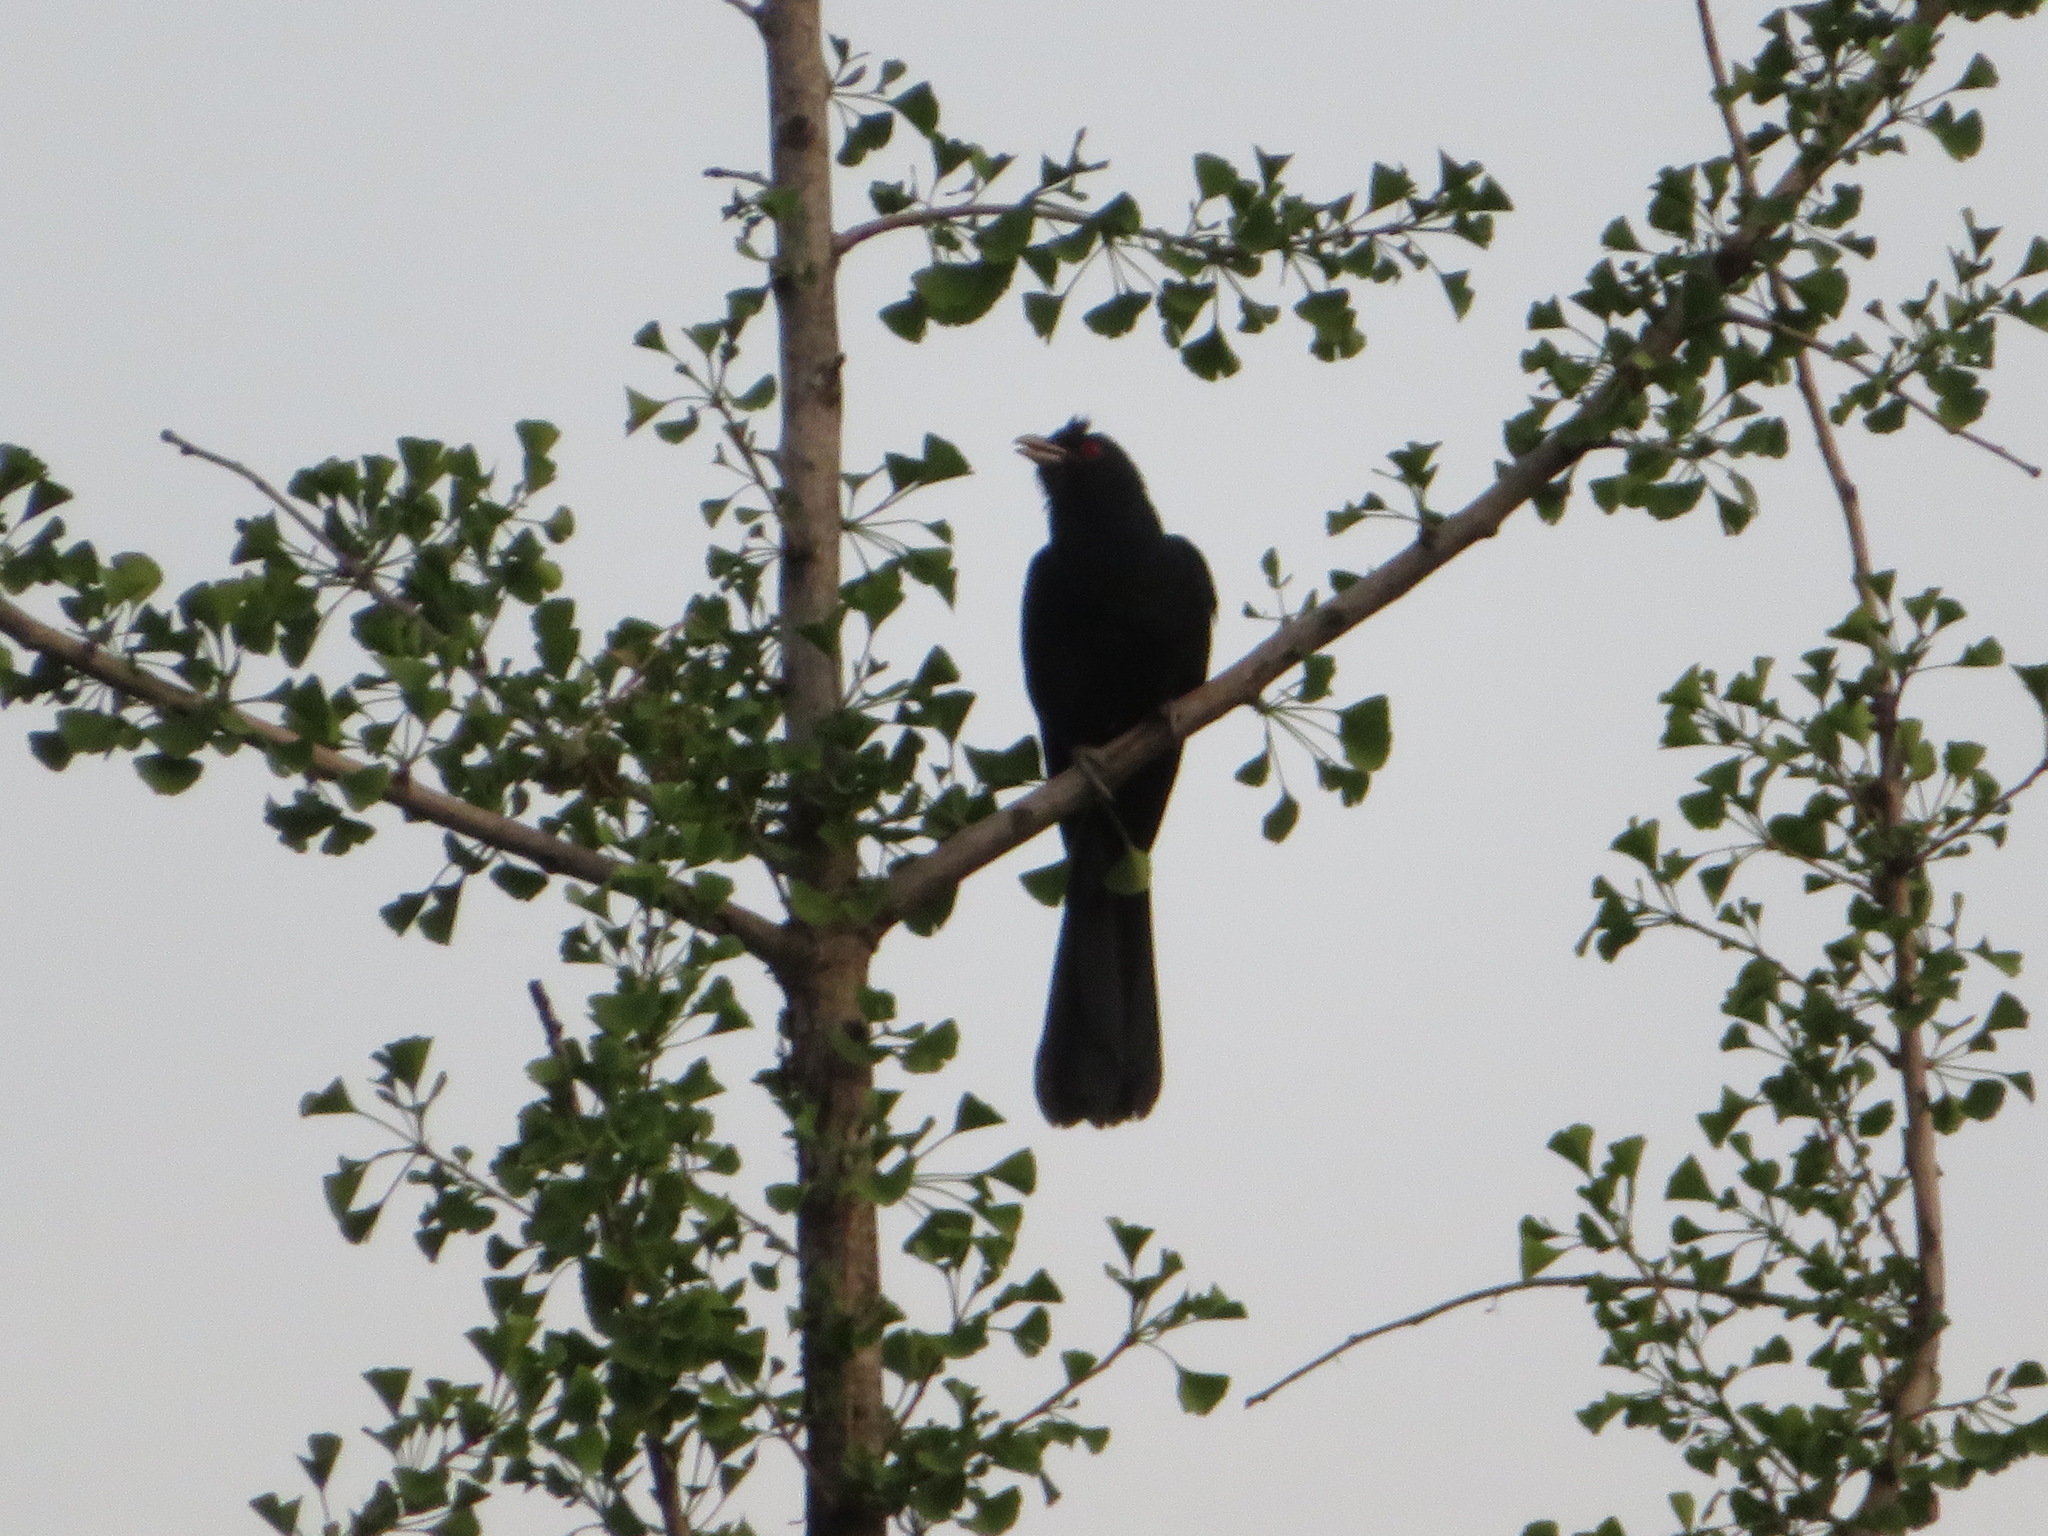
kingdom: Animalia
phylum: Chordata
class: Aves
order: Cuculiformes
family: Cuculidae
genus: Eudynamys
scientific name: Eudynamys scolopaceus
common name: Asian koel
